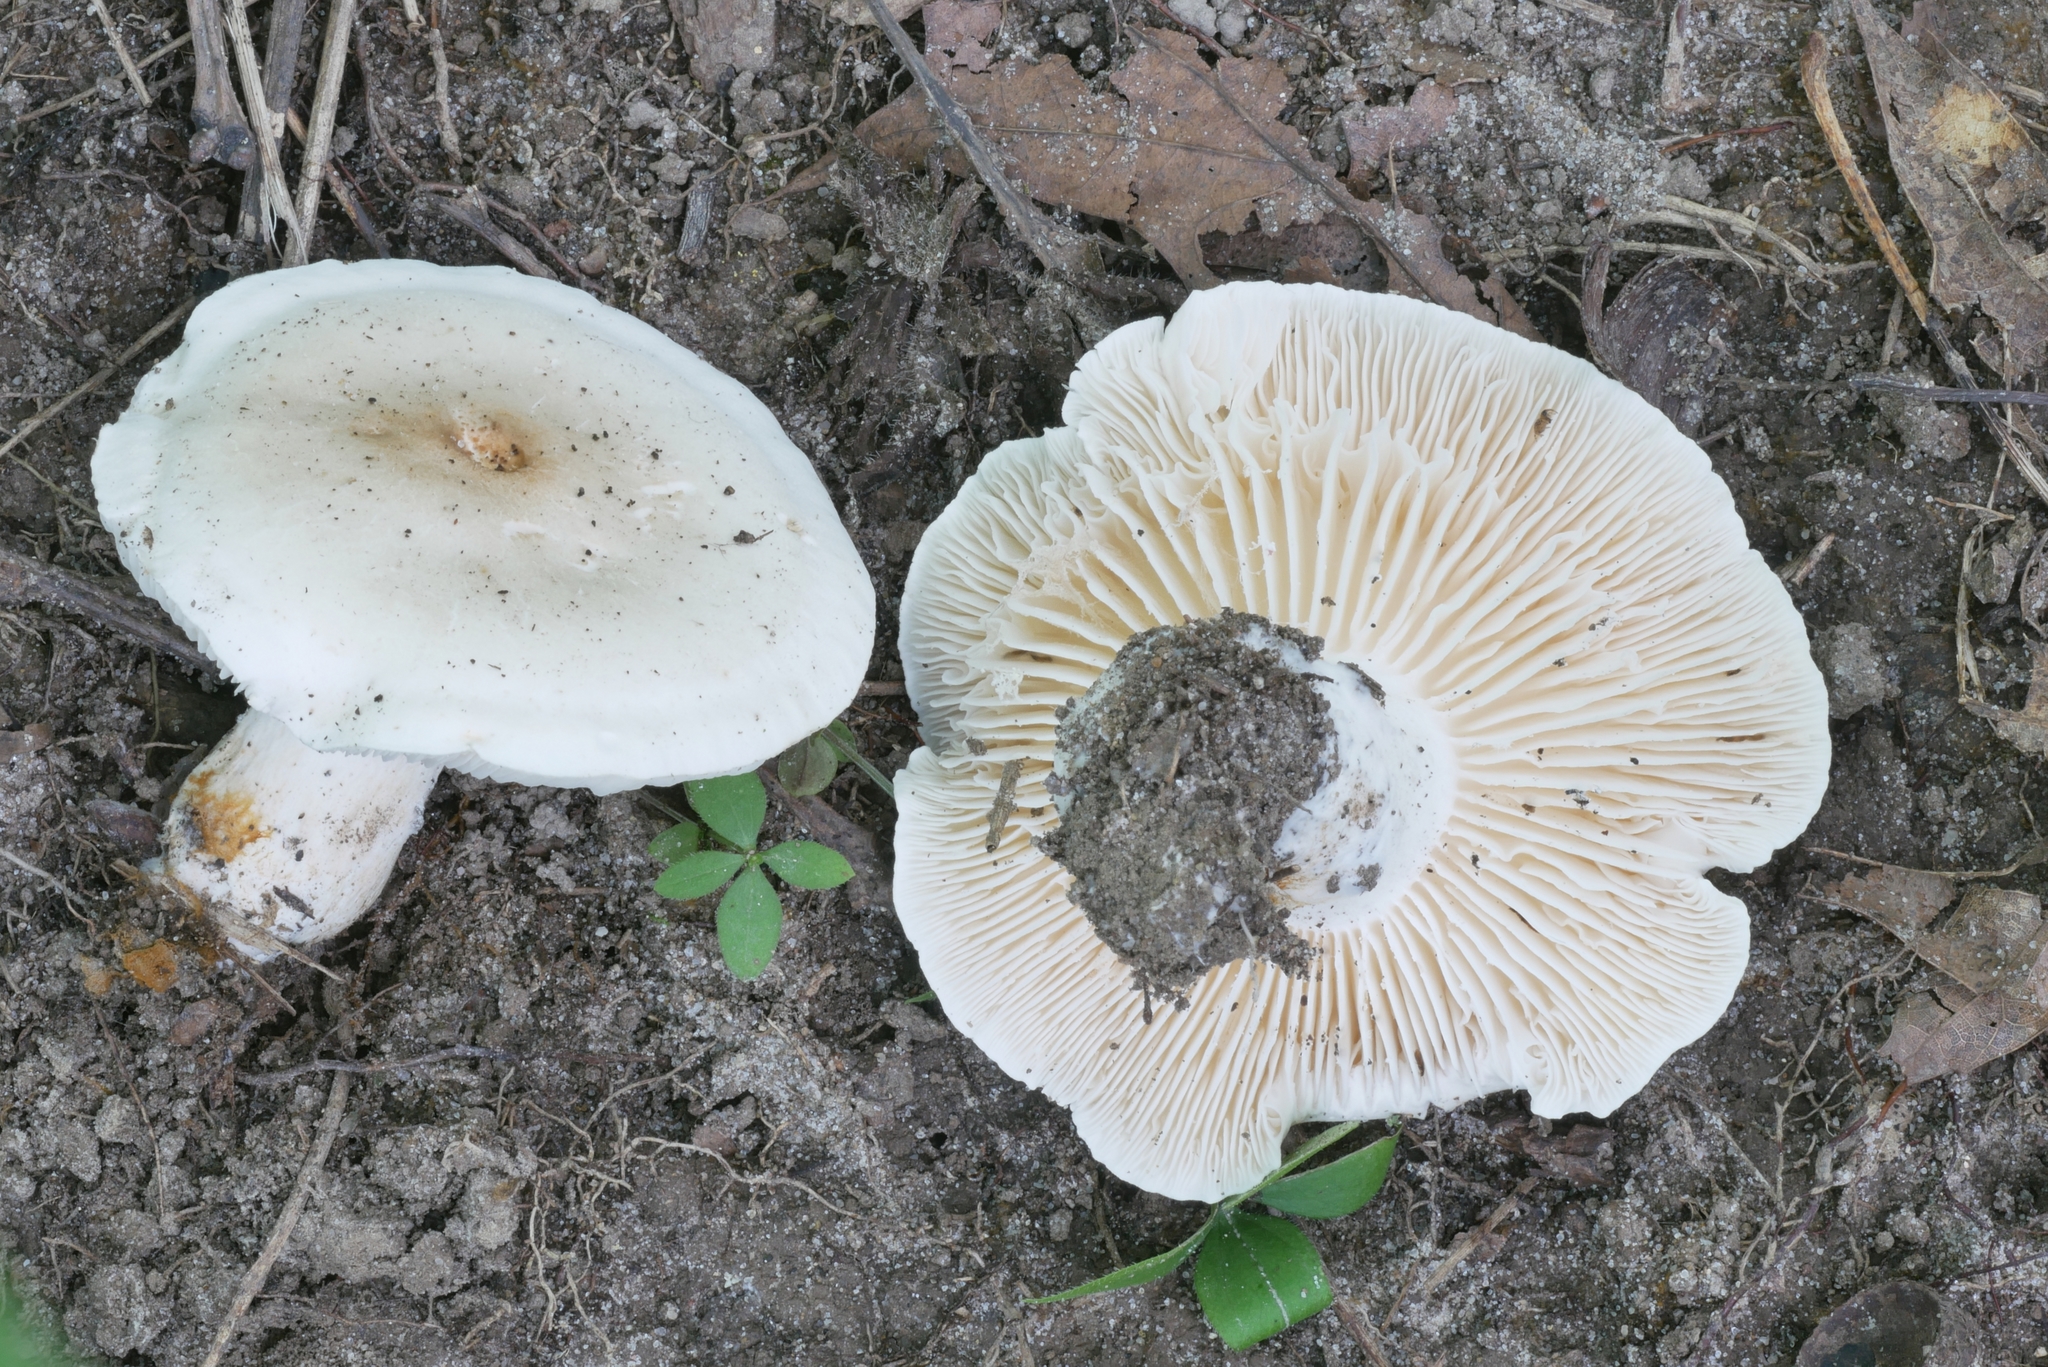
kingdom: Fungi
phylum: Basidiomycota
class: Agaricomycetes
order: Agaricales
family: Tricholomataceae
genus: Tricholoma
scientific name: Tricholoma
